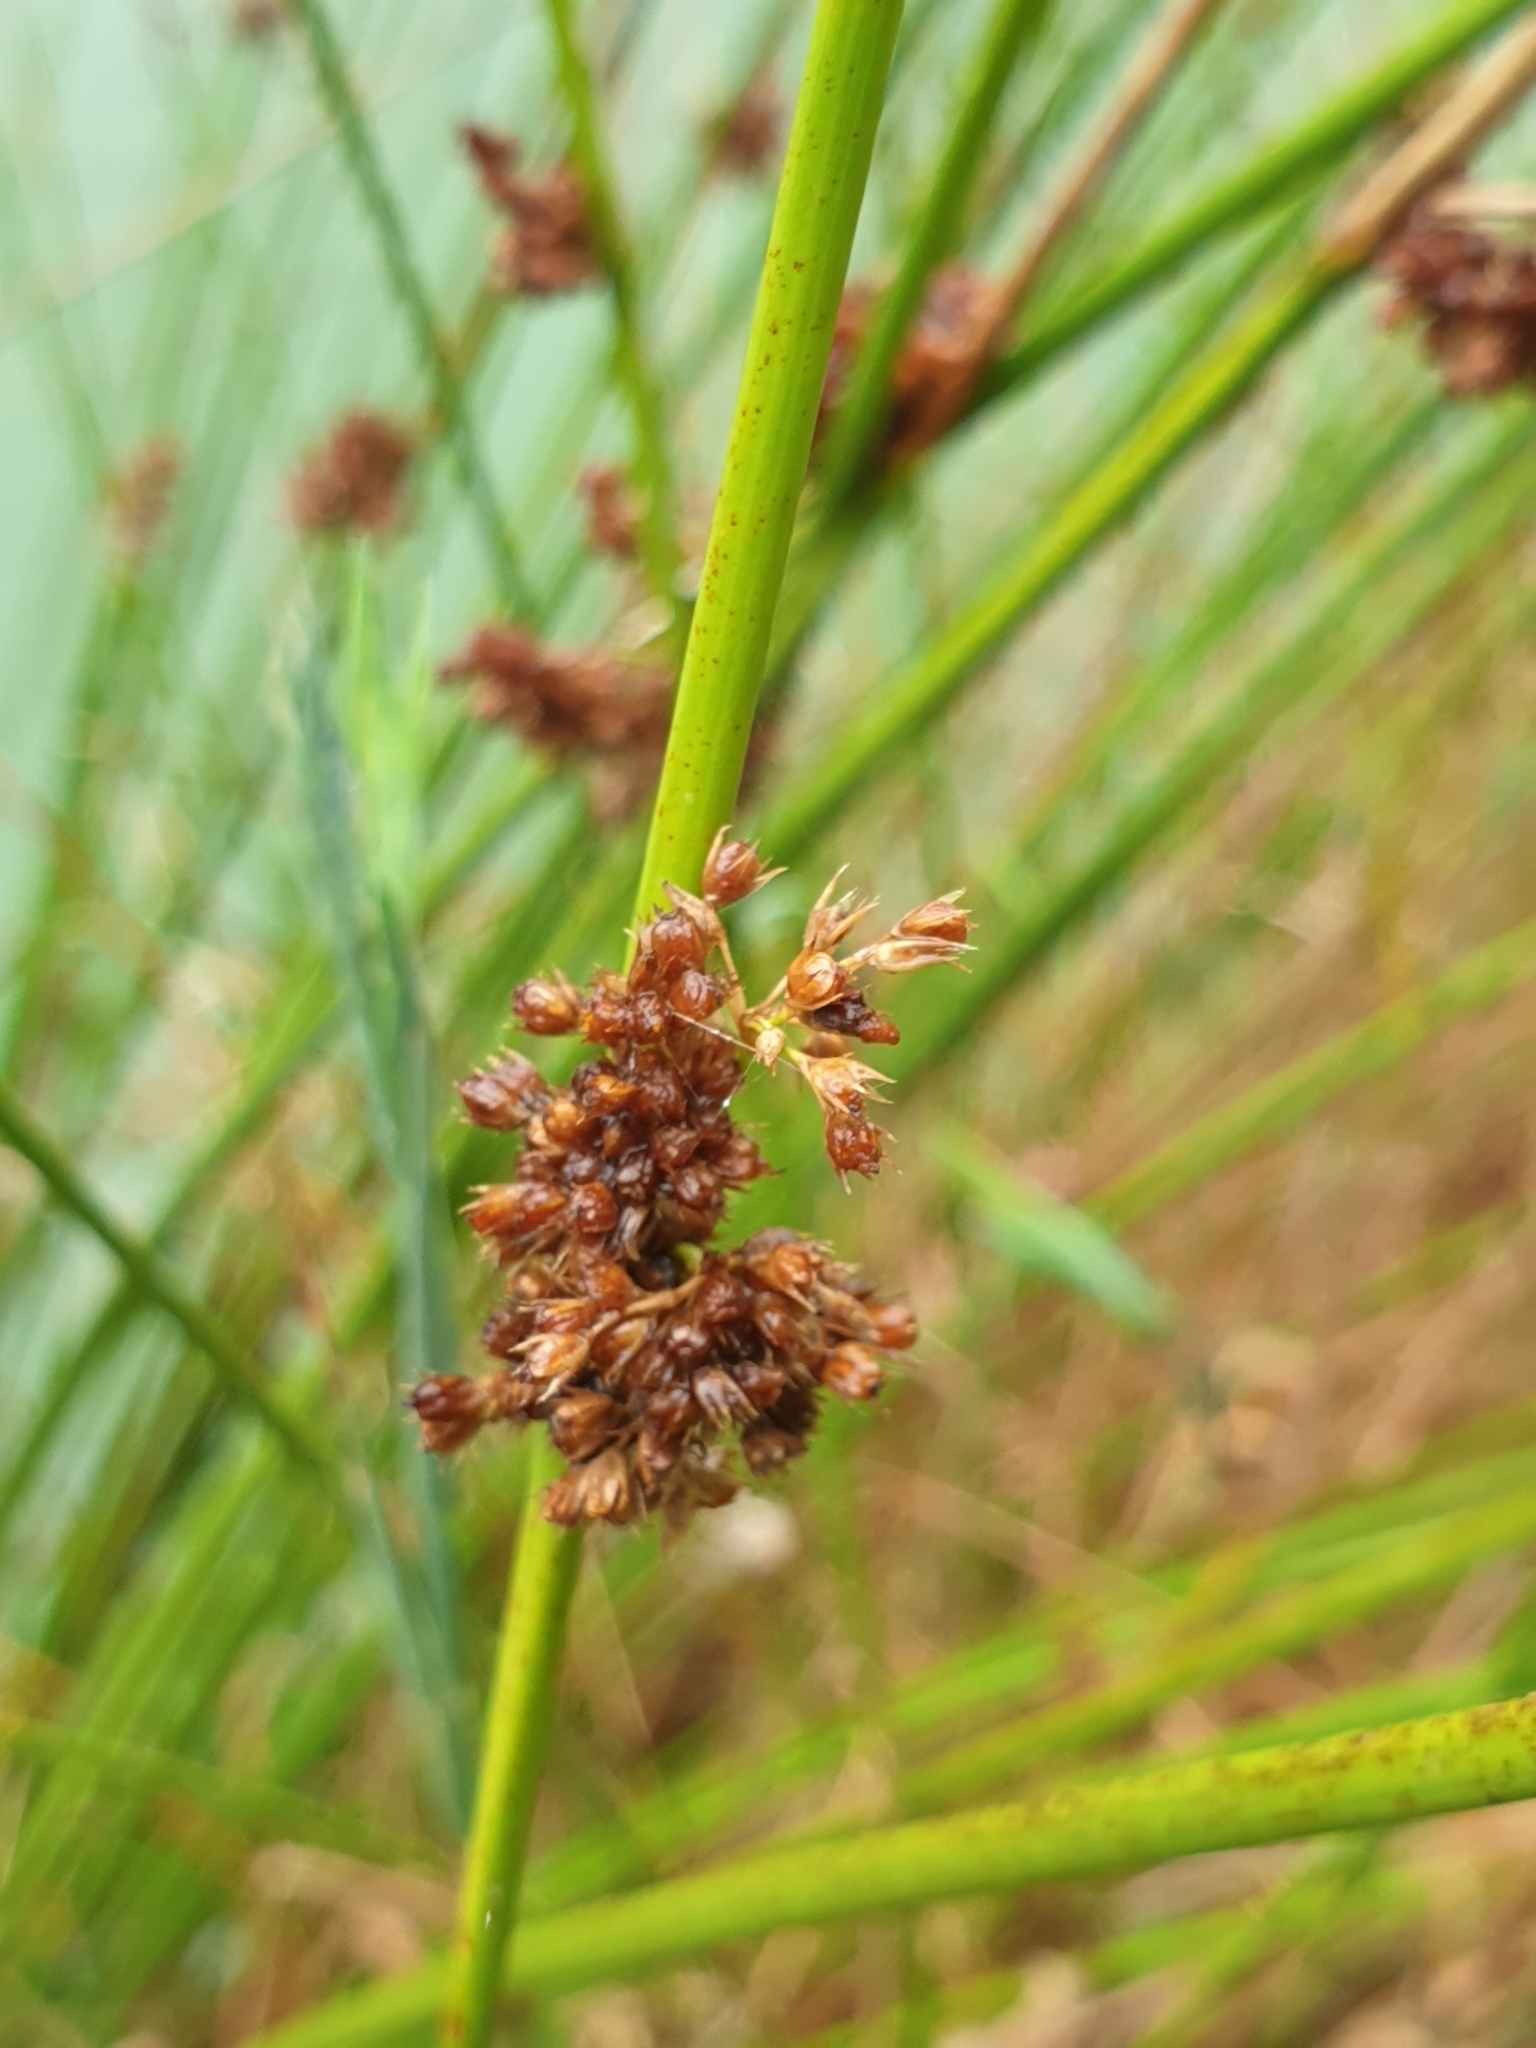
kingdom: Plantae
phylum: Tracheophyta
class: Liliopsida
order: Poales
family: Juncaceae
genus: Juncus
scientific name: Juncus effusus
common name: Soft rush
